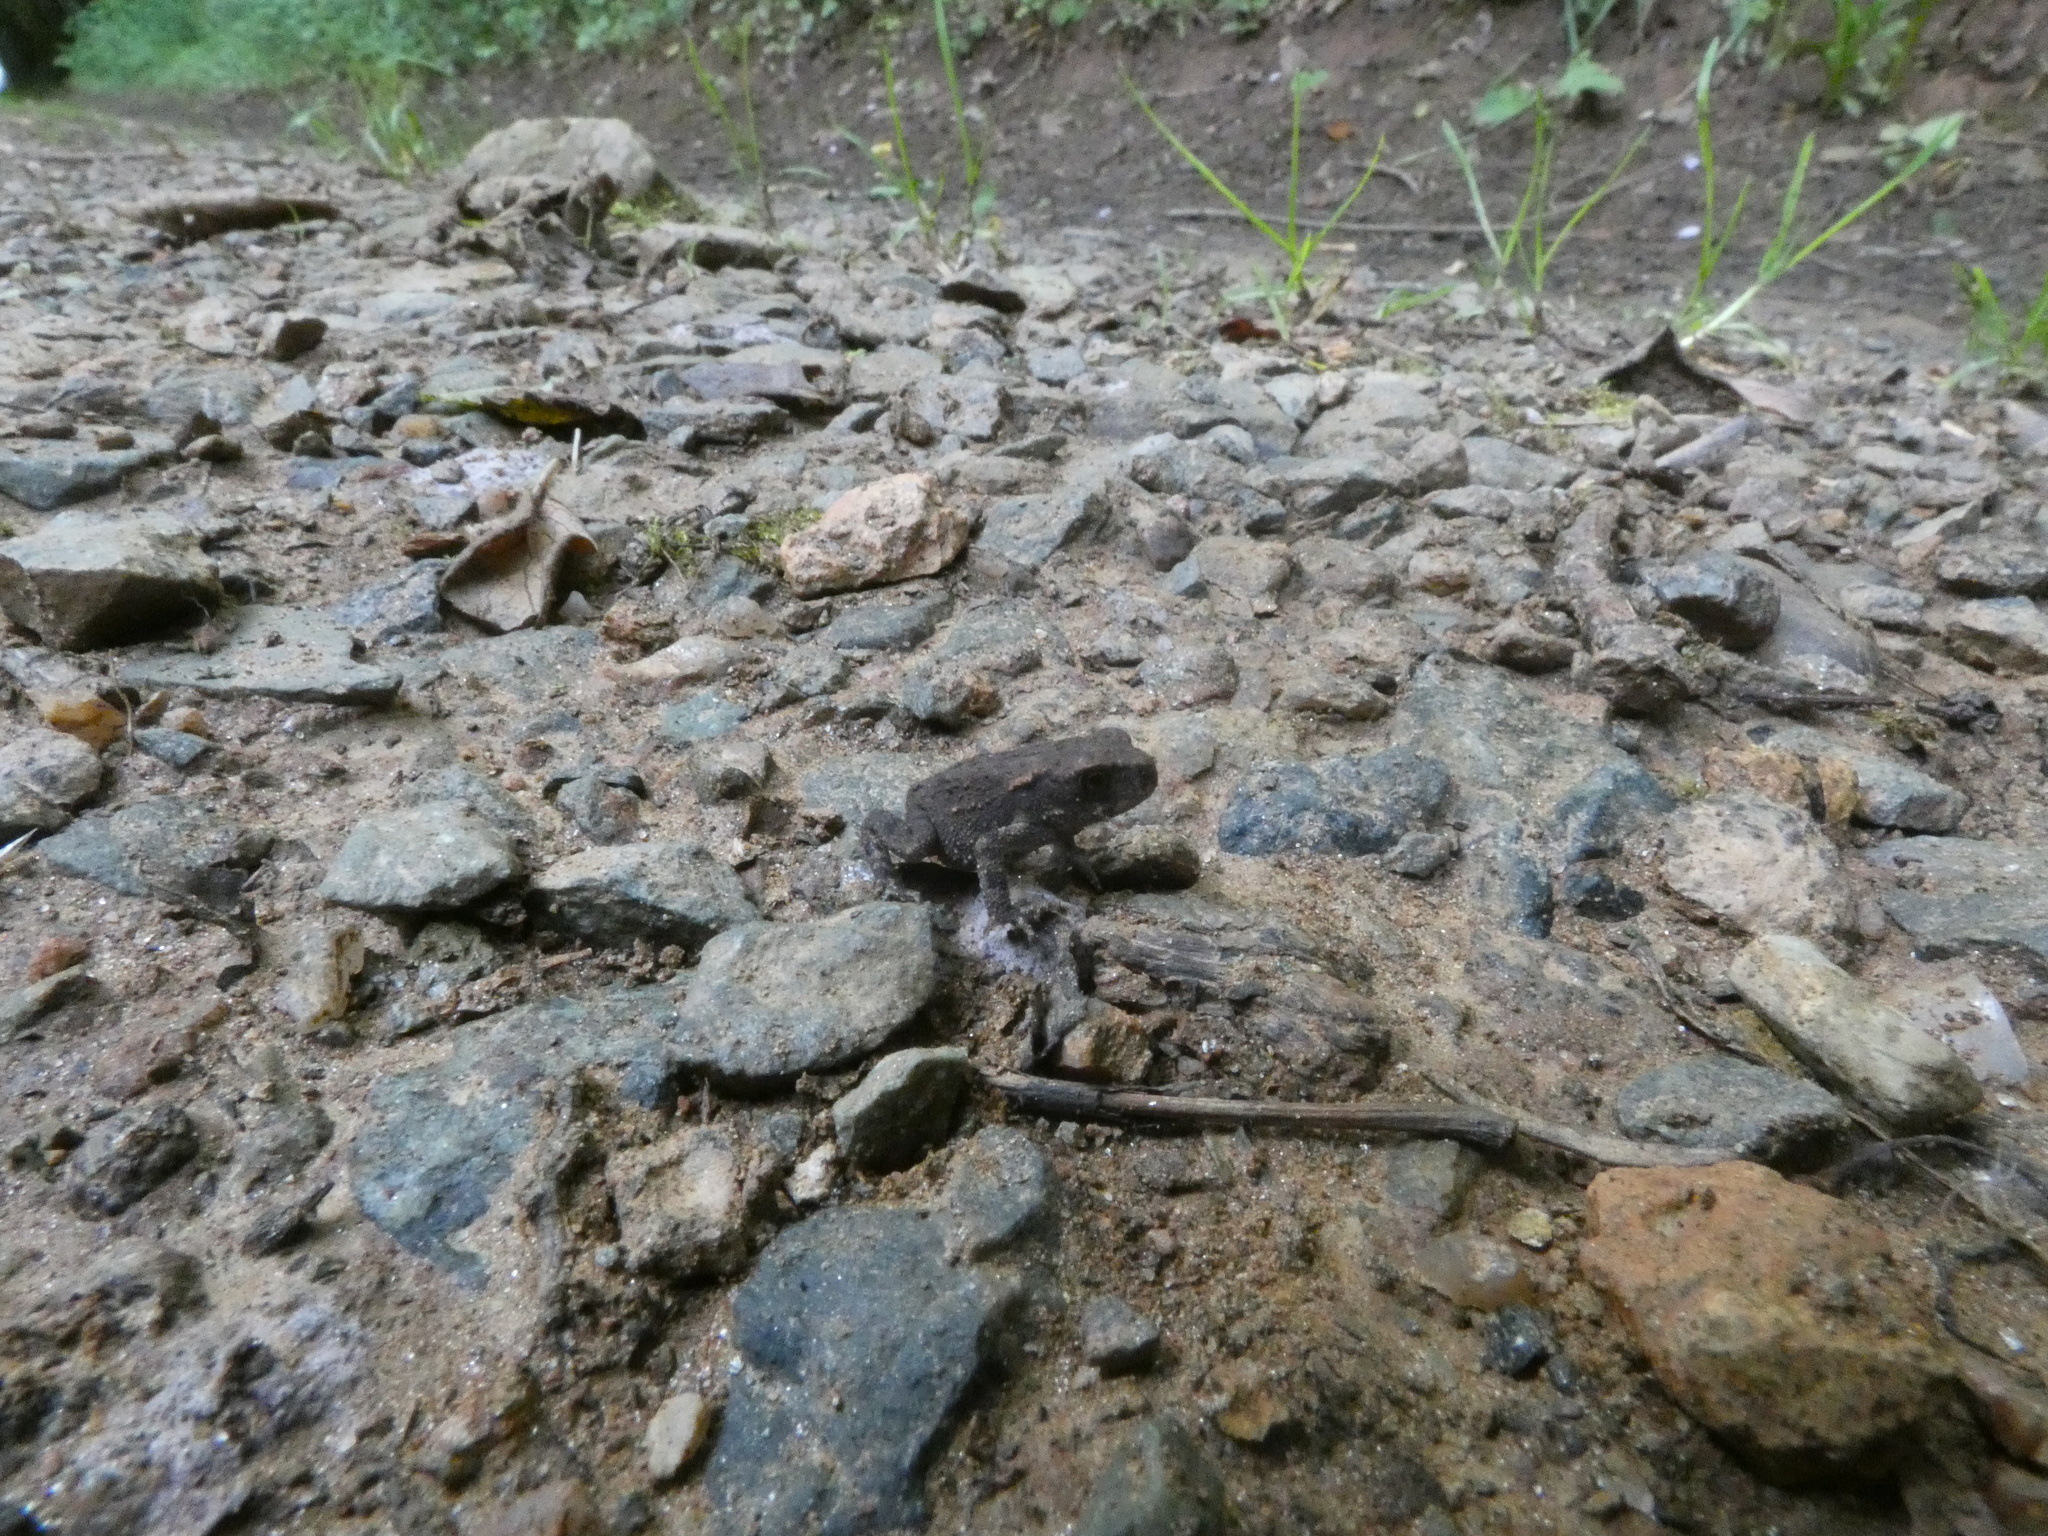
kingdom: Animalia
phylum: Chordata
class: Amphibia
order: Anura
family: Bufonidae
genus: Bufo
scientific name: Bufo spinosus
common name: Western common toad
